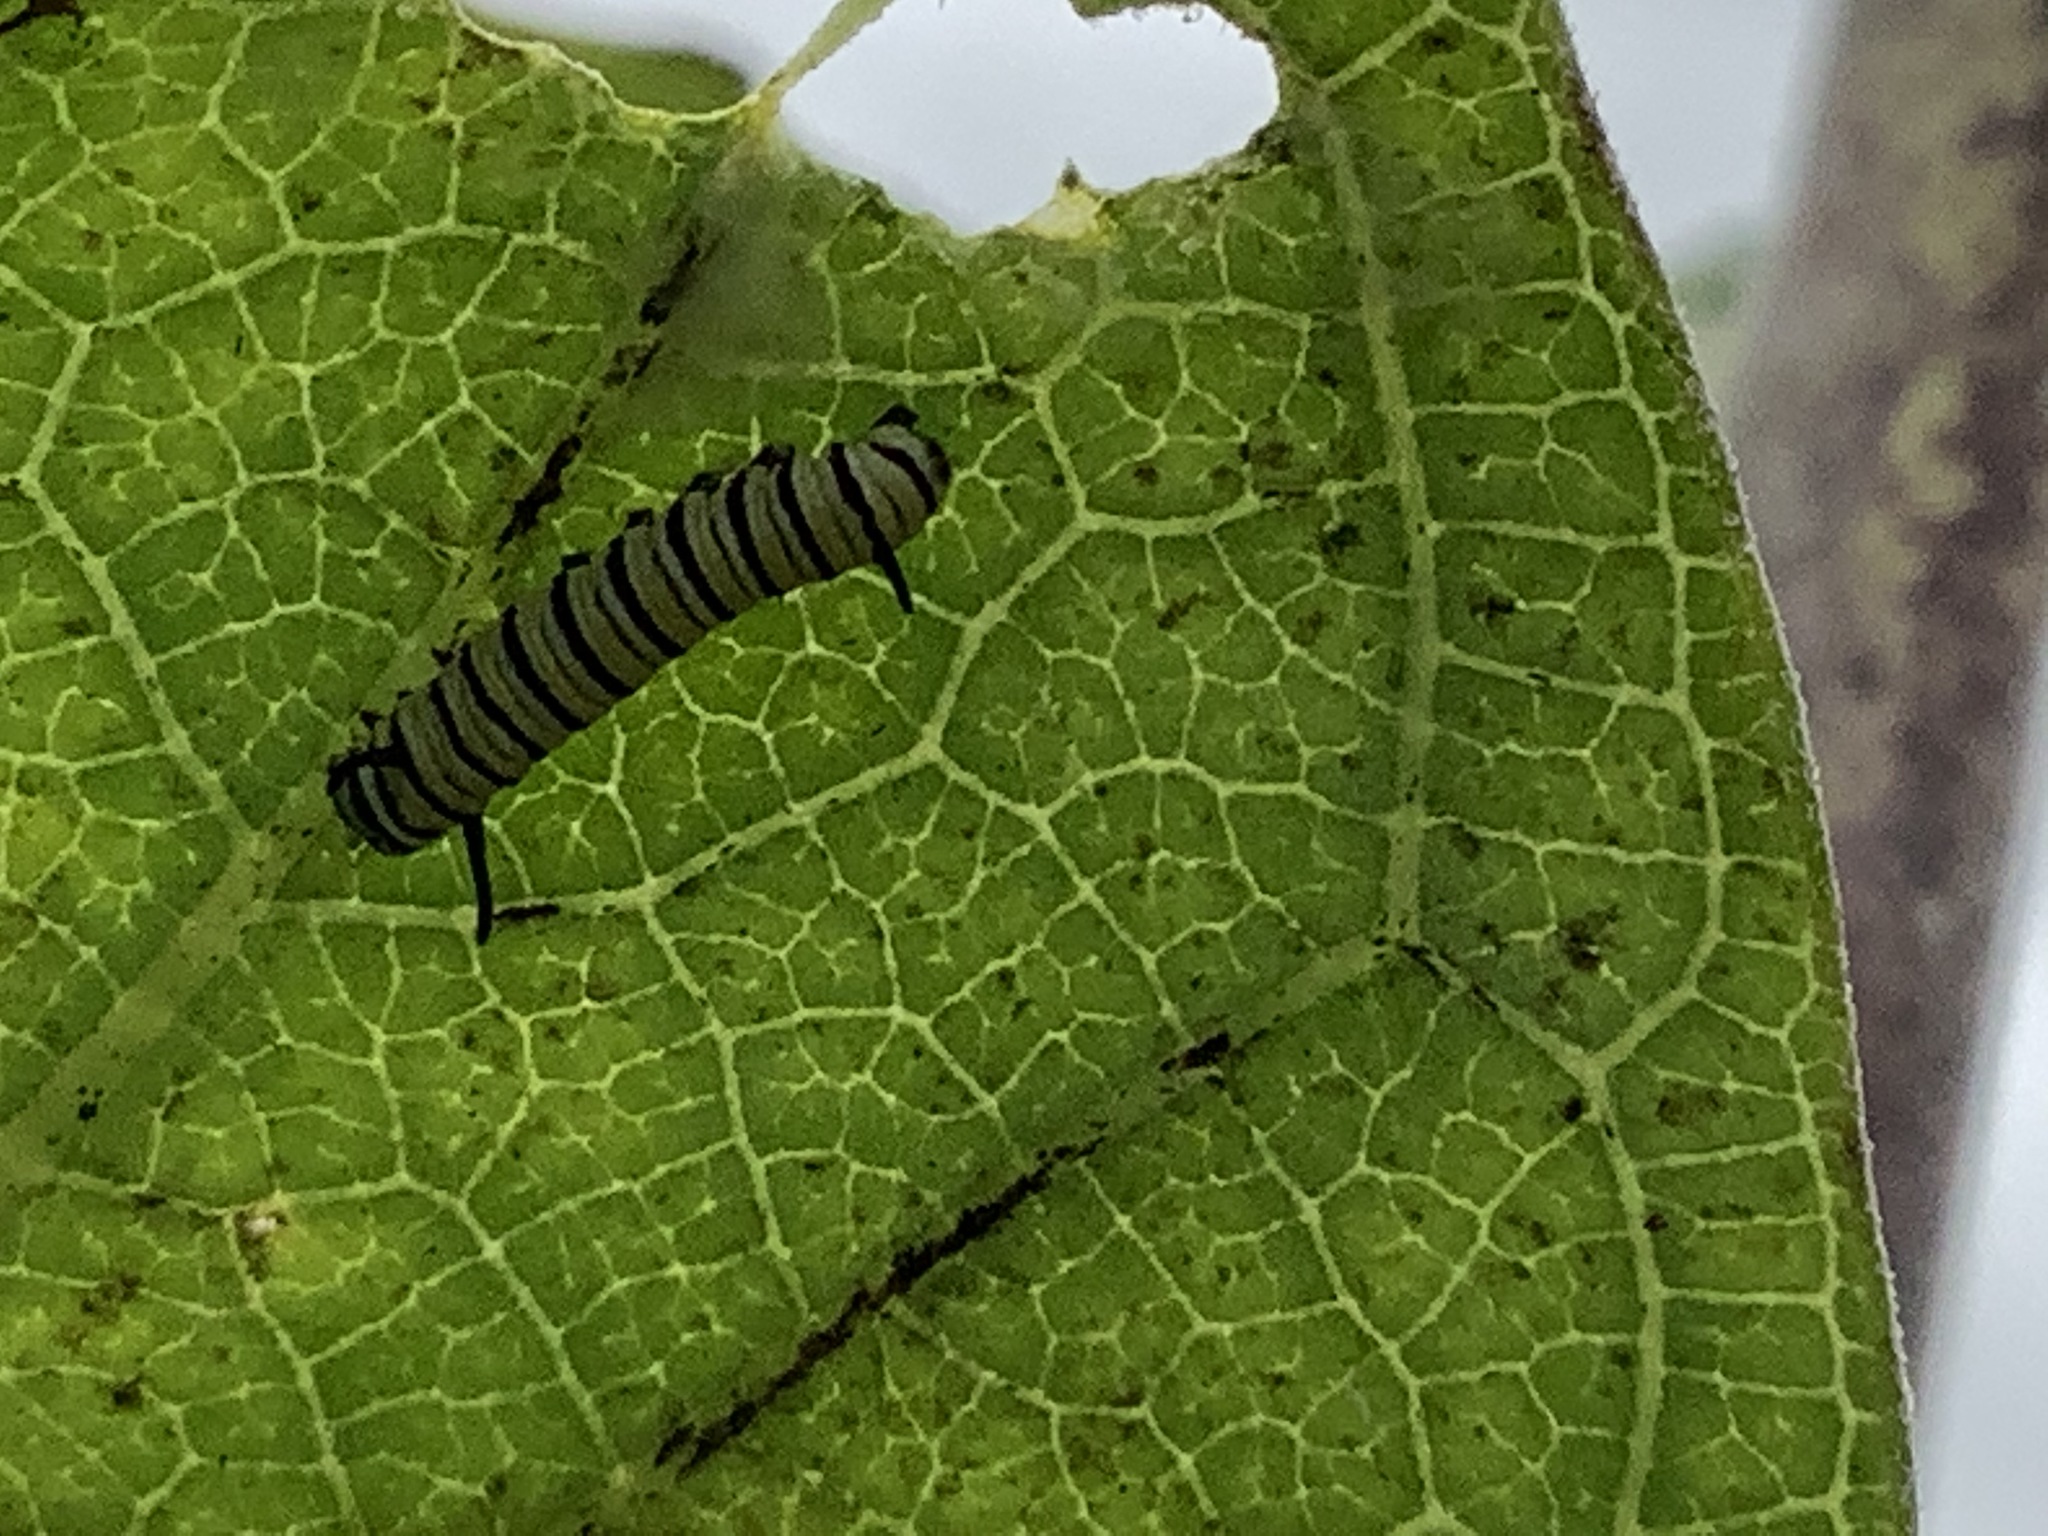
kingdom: Animalia
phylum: Arthropoda
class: Insecta
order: Lepidoptera
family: Nymphalidae
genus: Danaus
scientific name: Danaus plexippus
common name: Monarch
